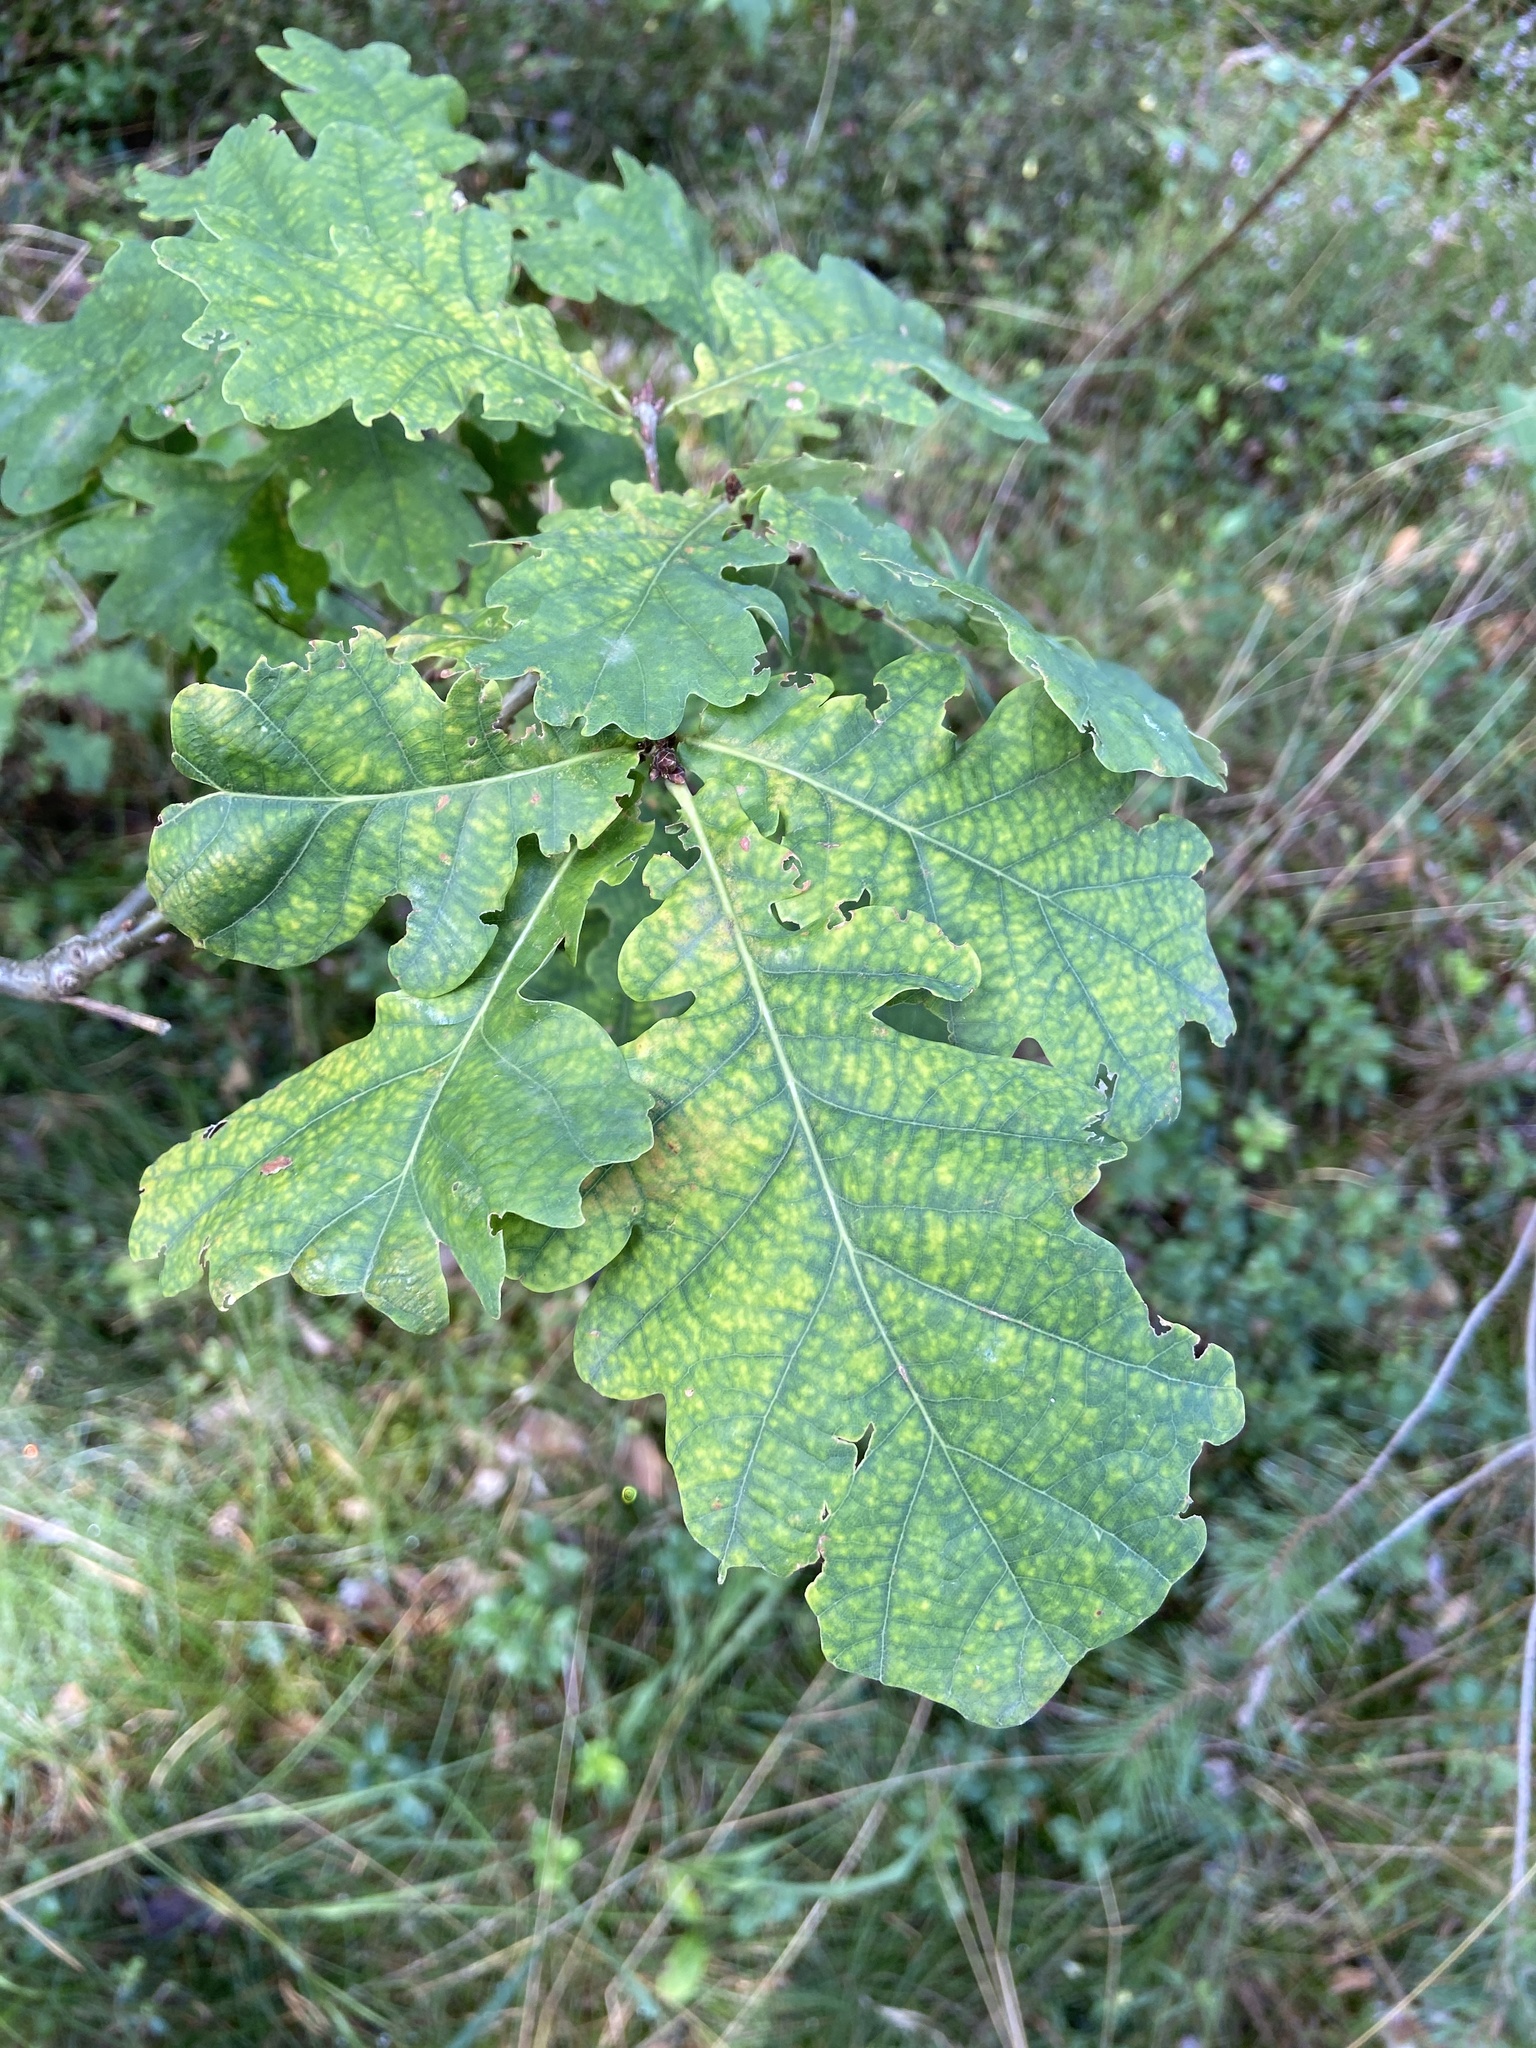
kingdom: Plantae
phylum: Tracheophyta
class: Magnoliopsida
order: Fagales
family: Fagaceae
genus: Quercus
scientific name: Quercus robur
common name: Pedunculate oak
